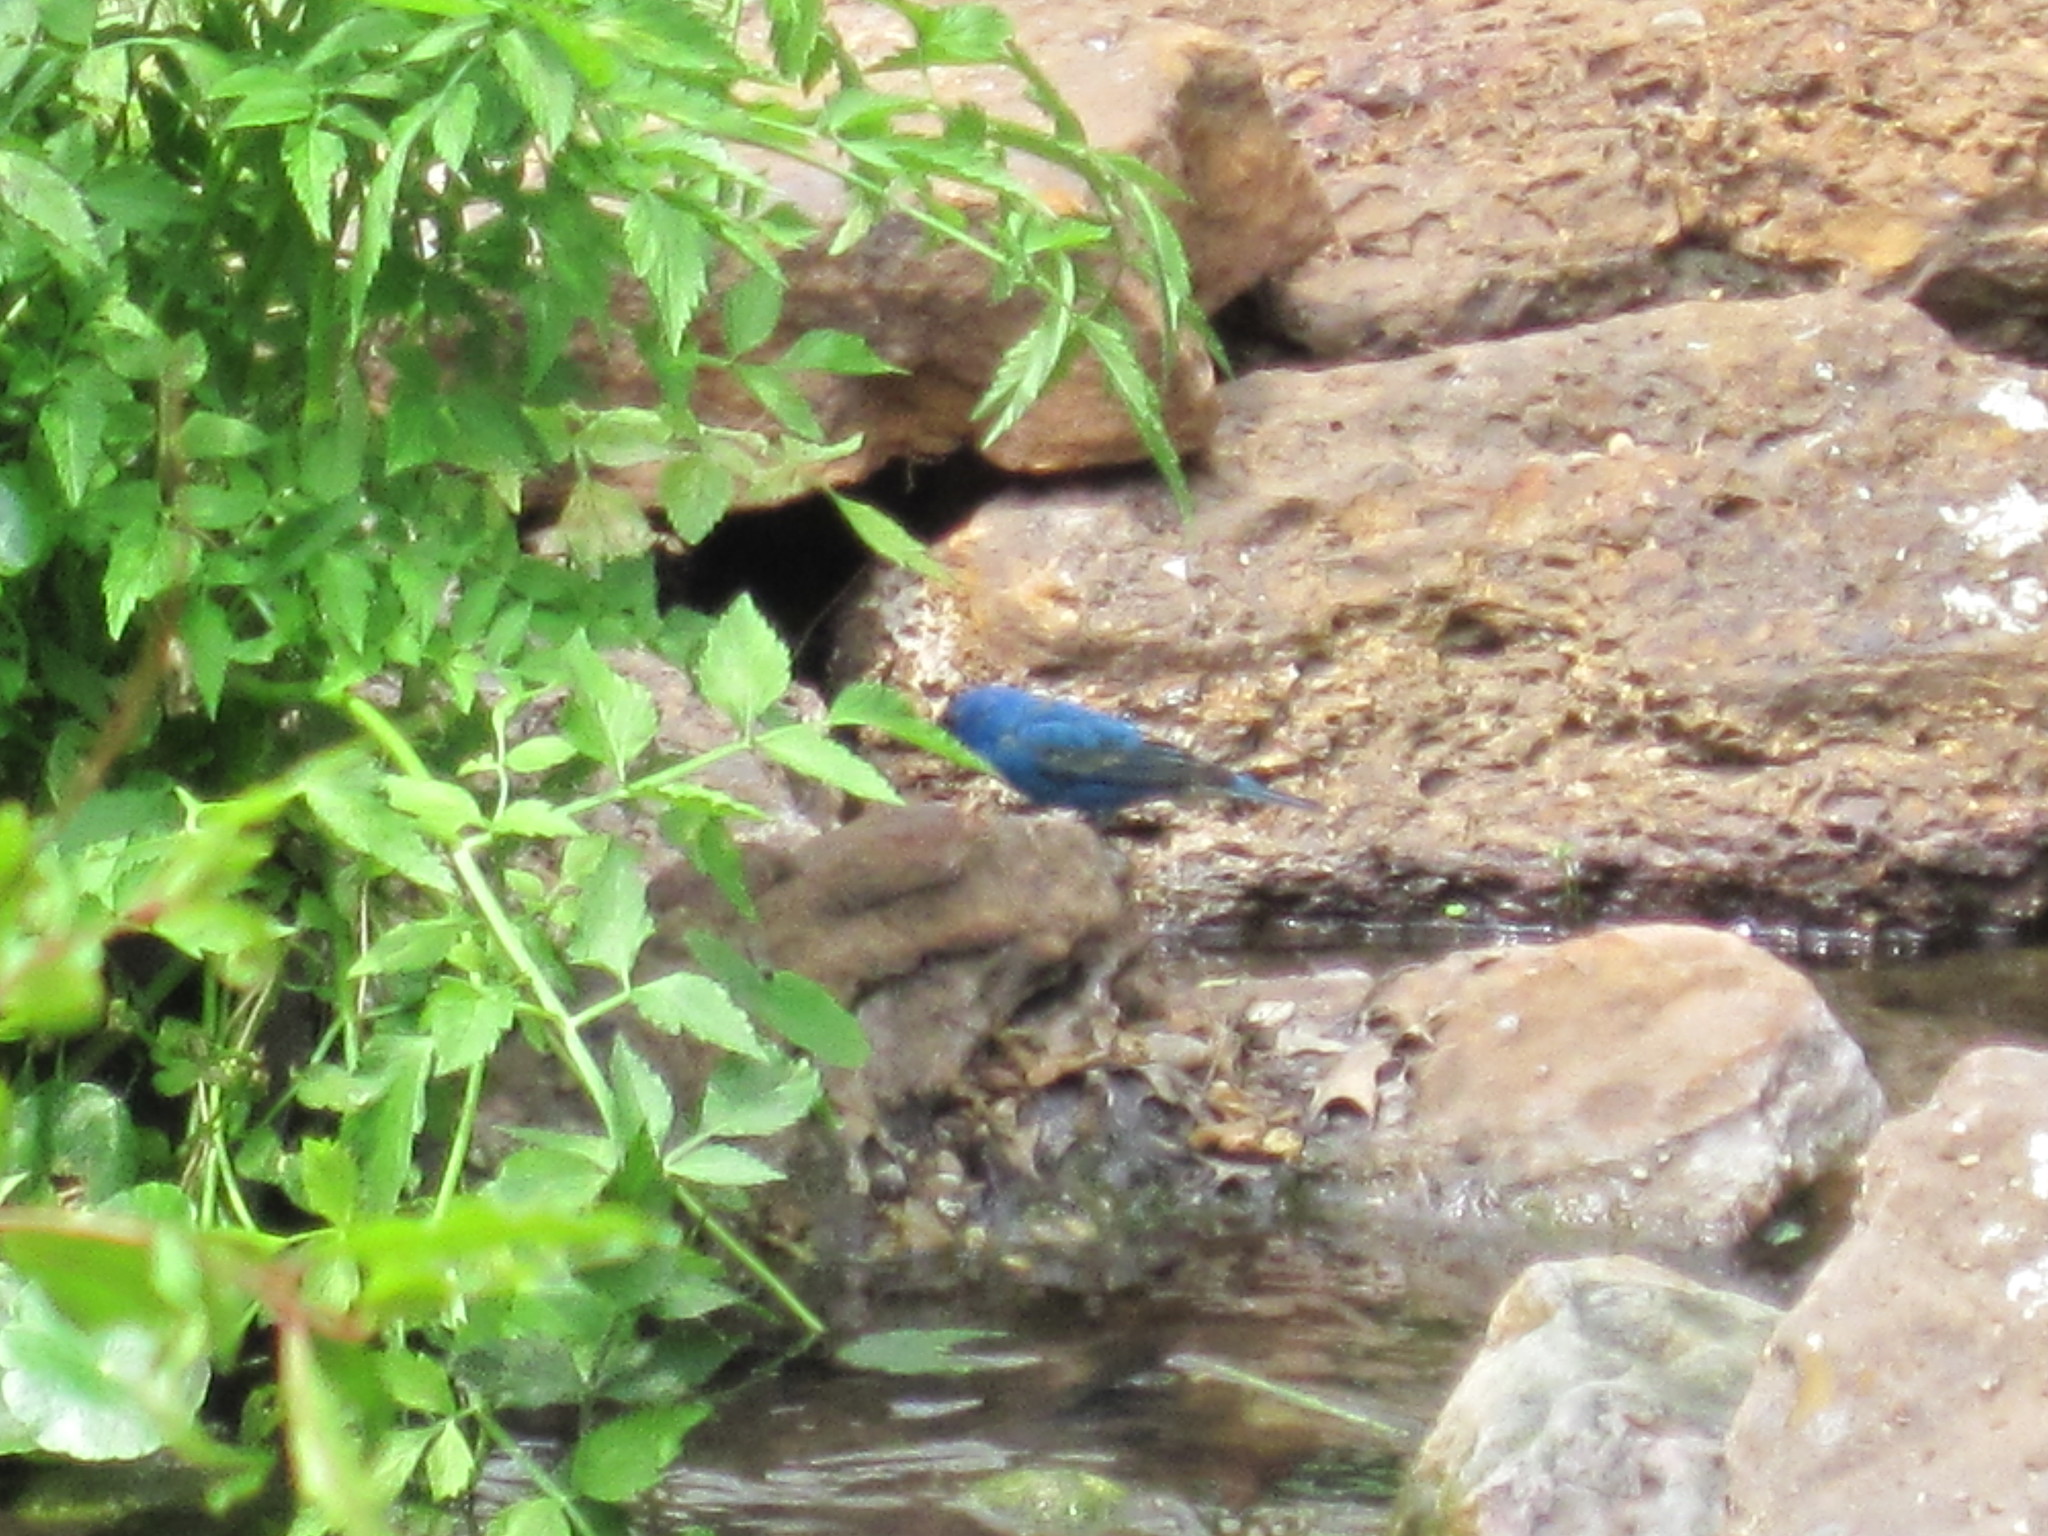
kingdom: Animalia
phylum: Chordata
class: Aves
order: Passeriformes
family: Cardinalidae
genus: Passerina
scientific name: Passerina cyanea
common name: Indigo bunting
